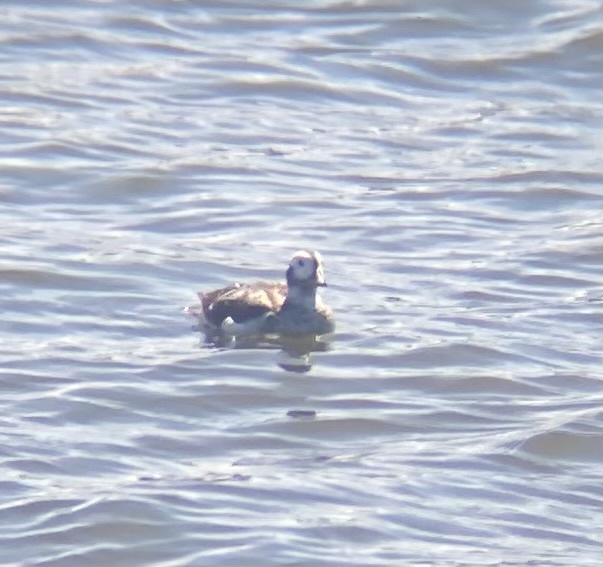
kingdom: Animalia
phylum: Chordata
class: Aves
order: Anseriformes
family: Anatidae
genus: Clangula
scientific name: Clangula hyemalis
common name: Long-tailed duck
